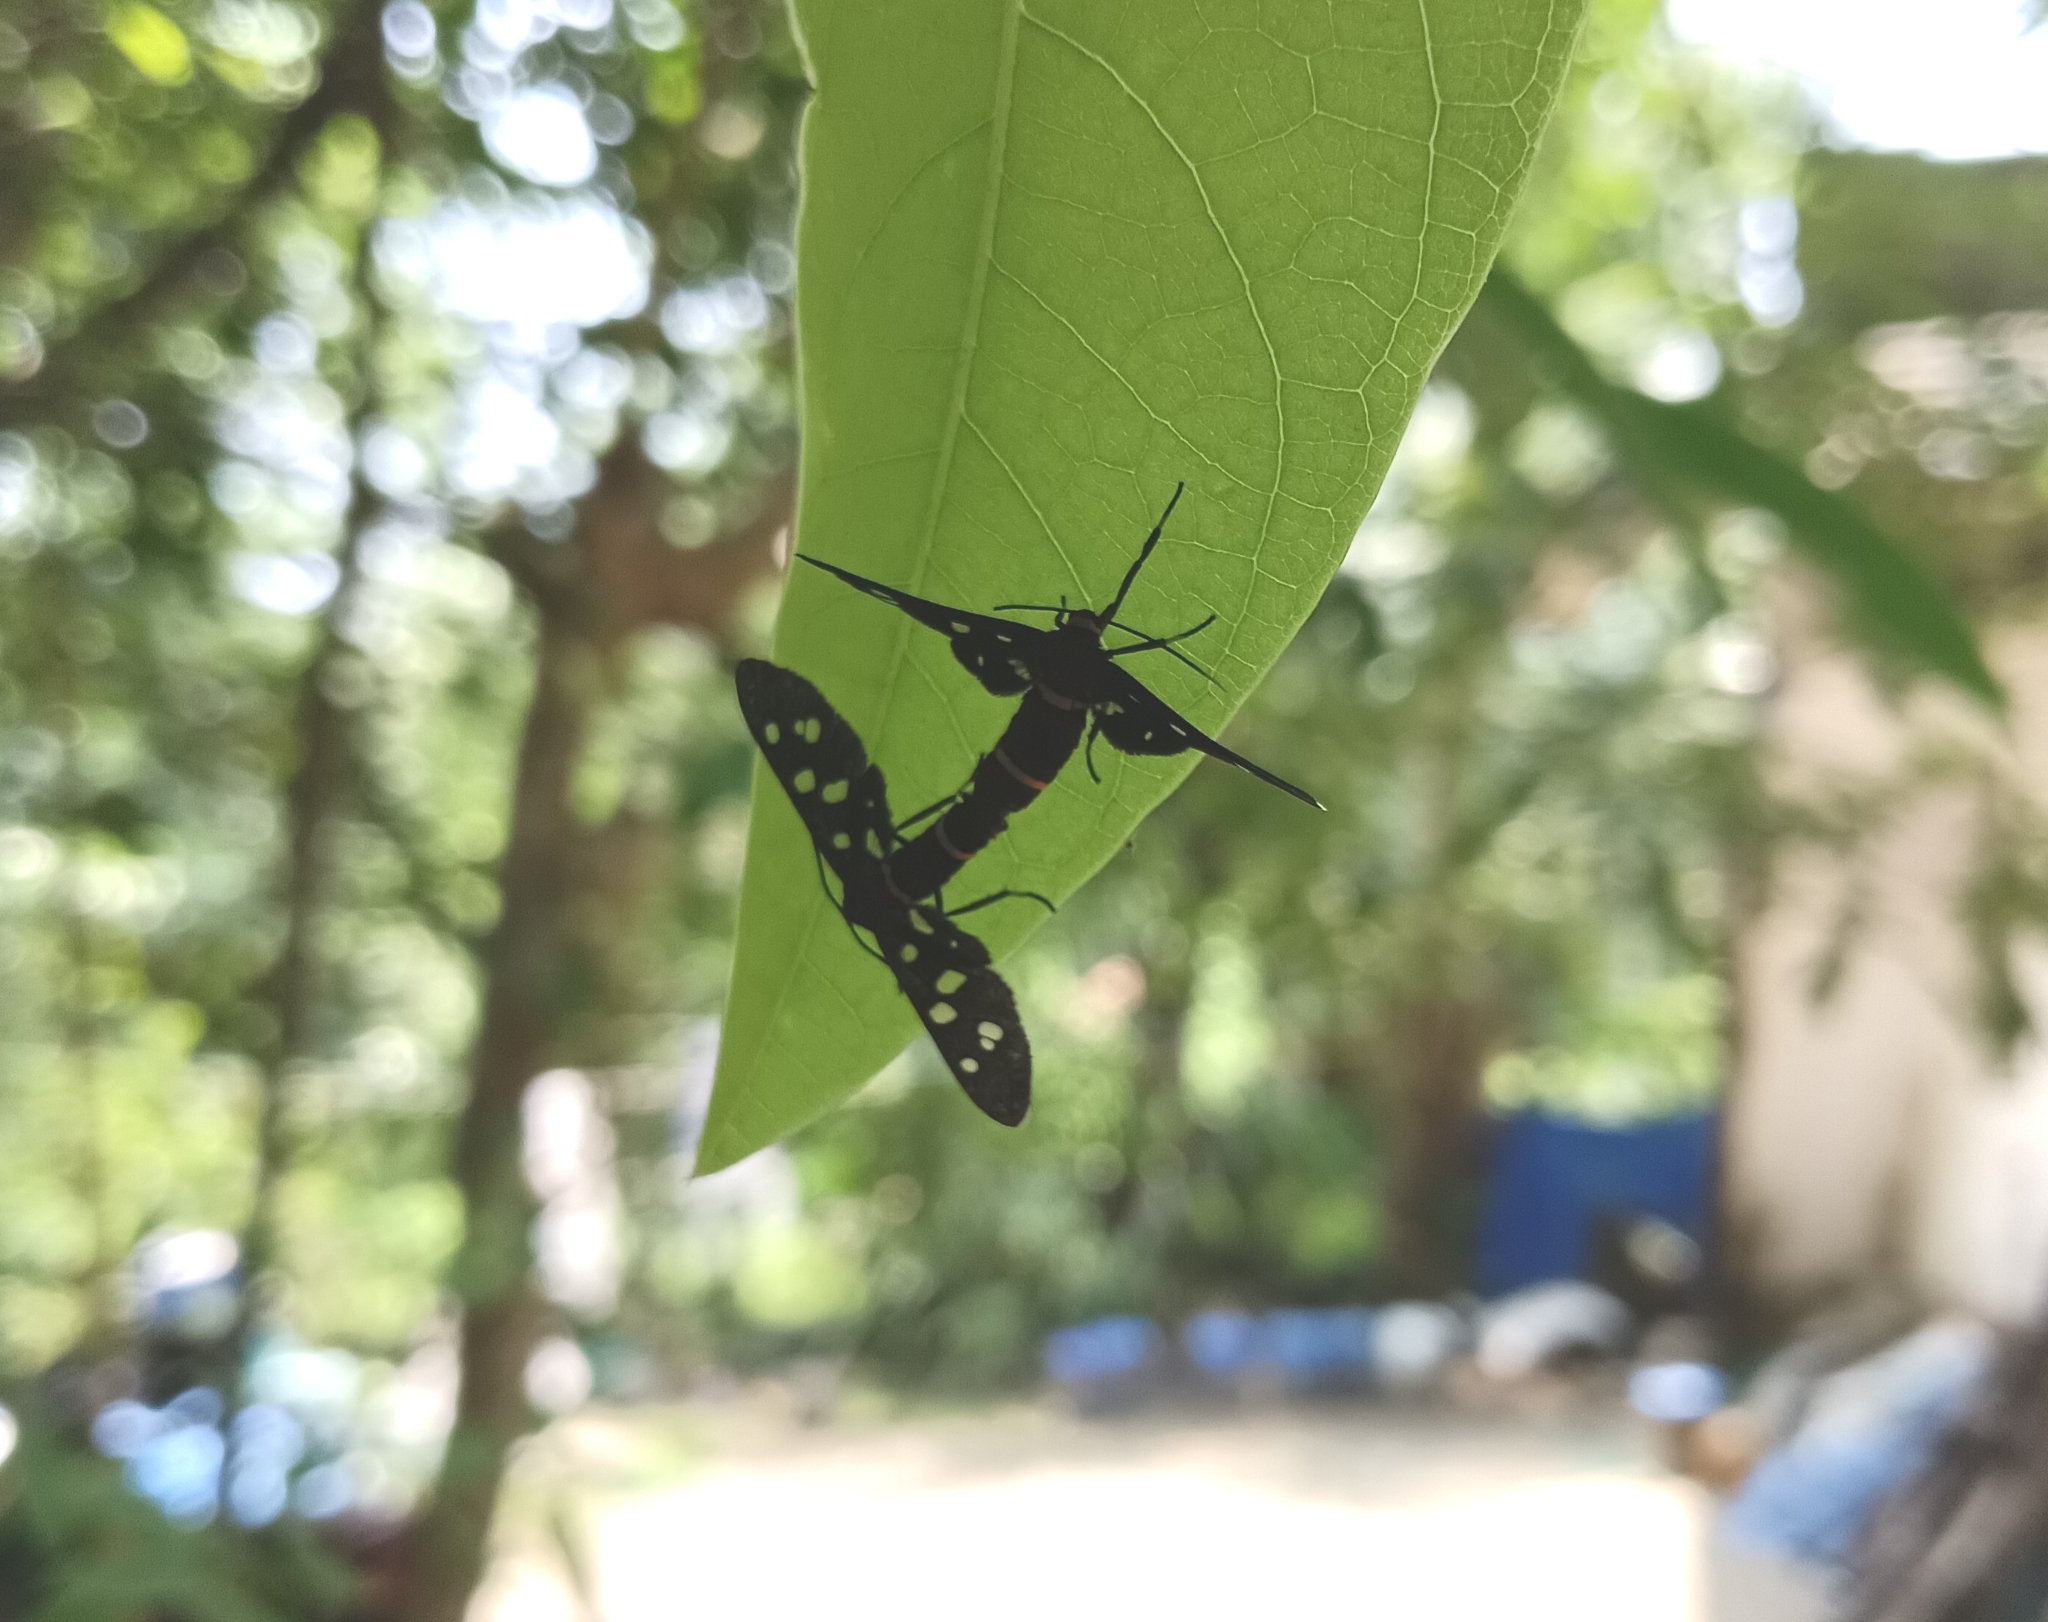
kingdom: Animalia
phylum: Arthropoda
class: Insecta
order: Lepidoptera
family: Erebidae
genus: Amata
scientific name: Amata passalis
